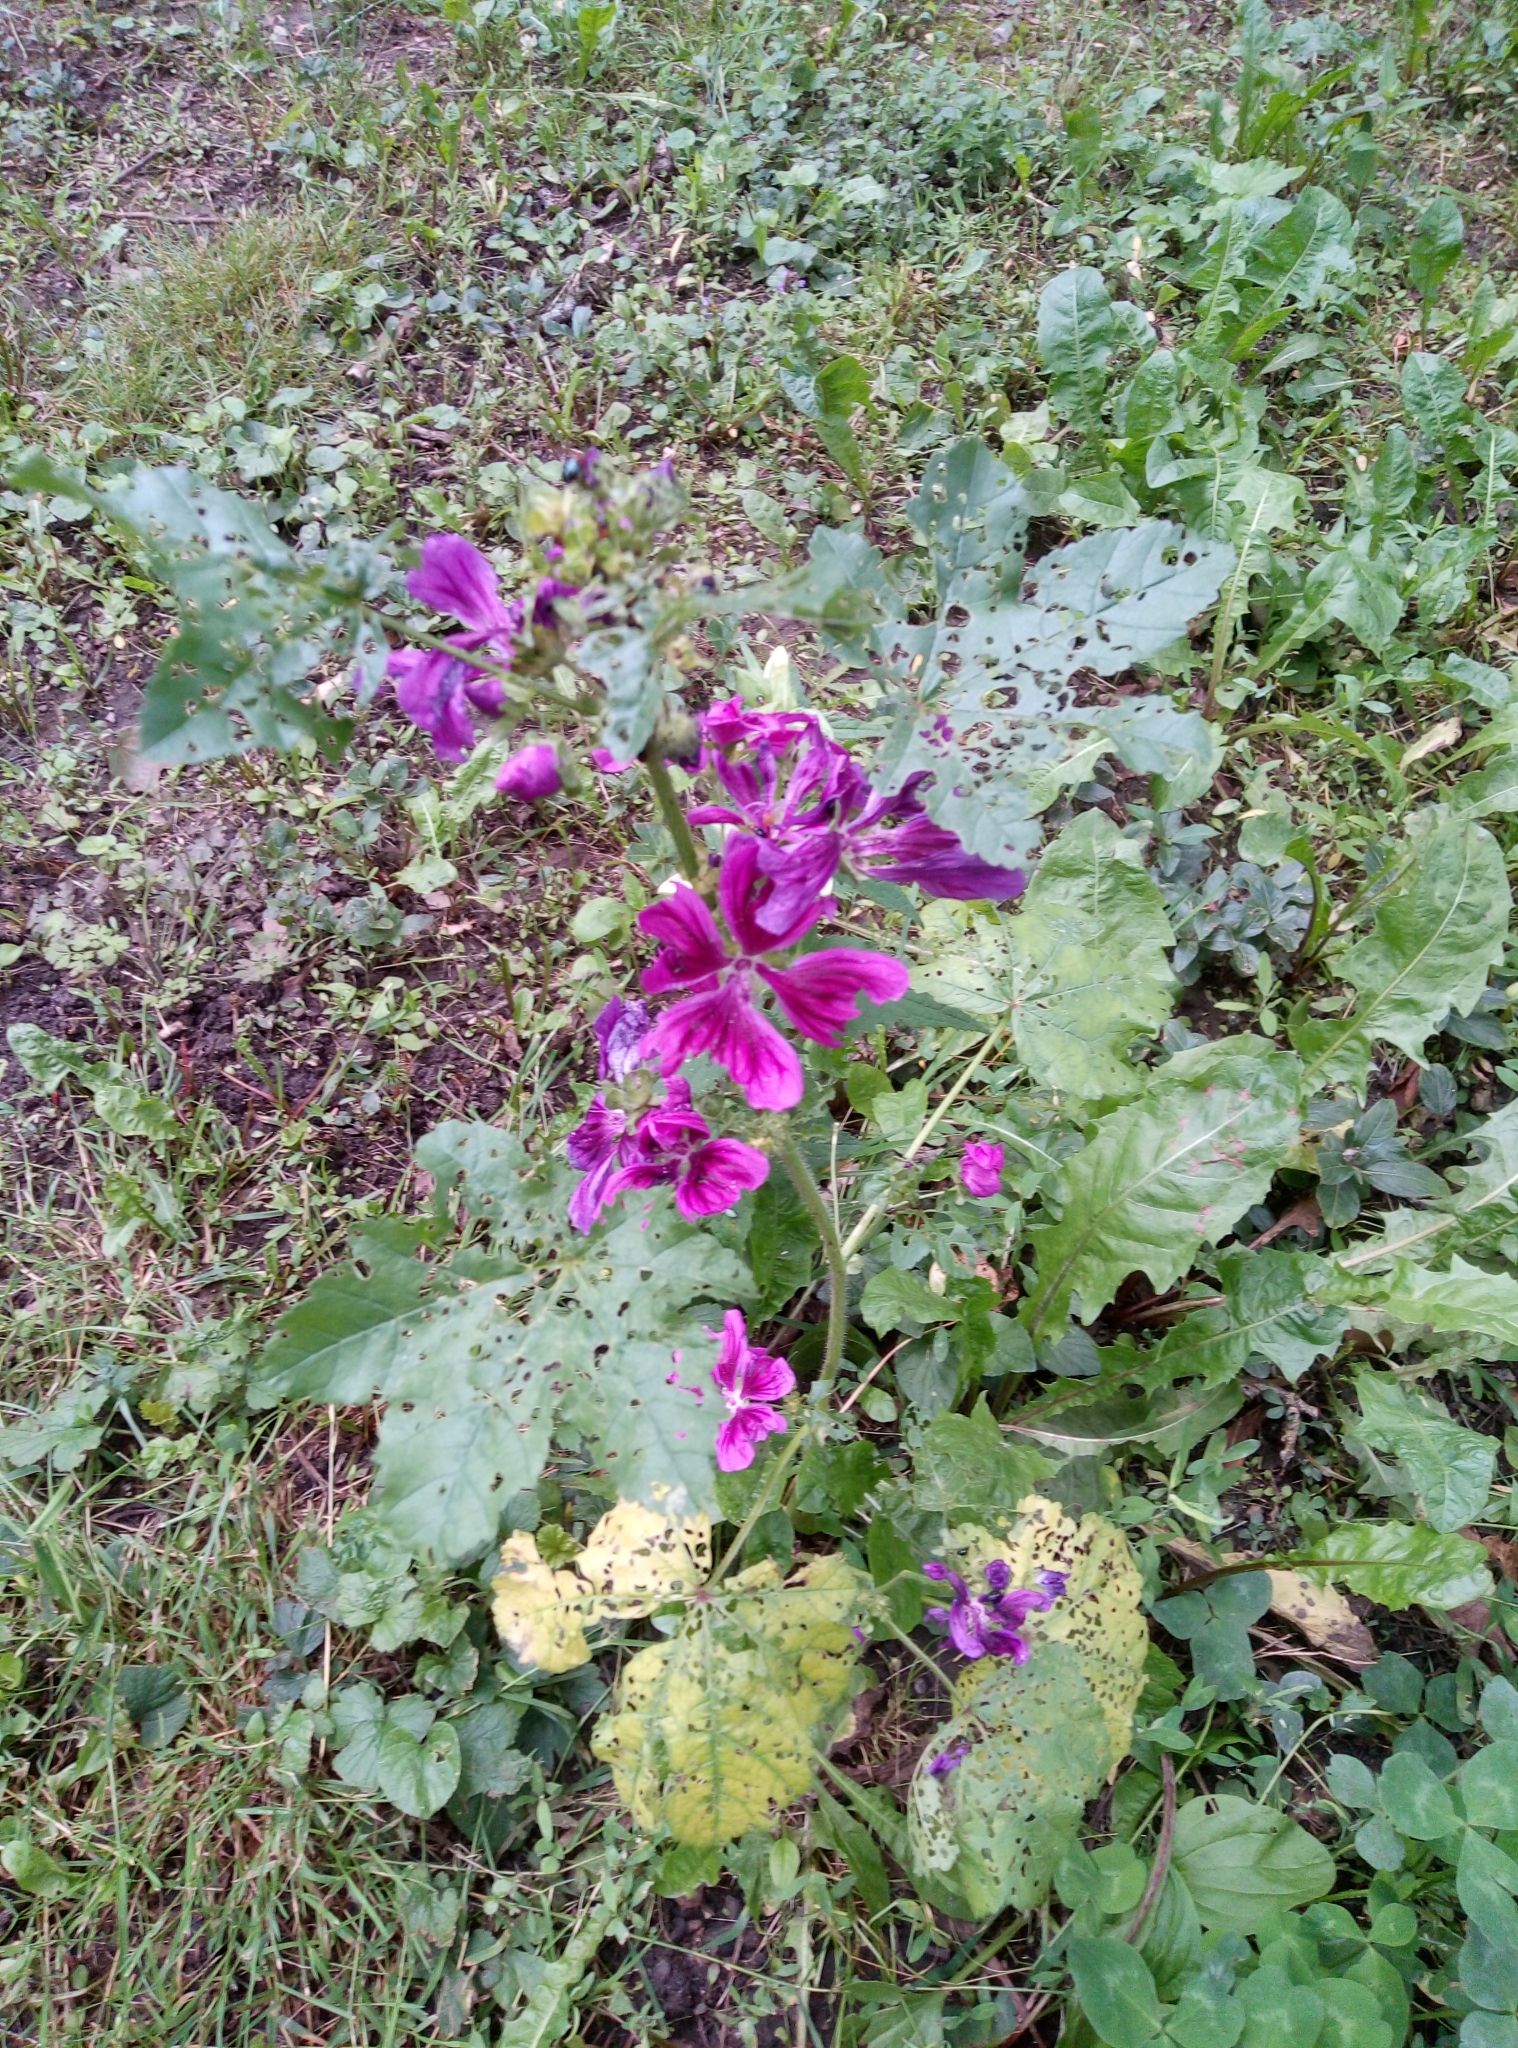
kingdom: Plantae
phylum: Tracheophyta
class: Magnoliopsida
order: Malvales
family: Malvaceae
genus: Malva
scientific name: Malva sylvestris
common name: Common mallow
